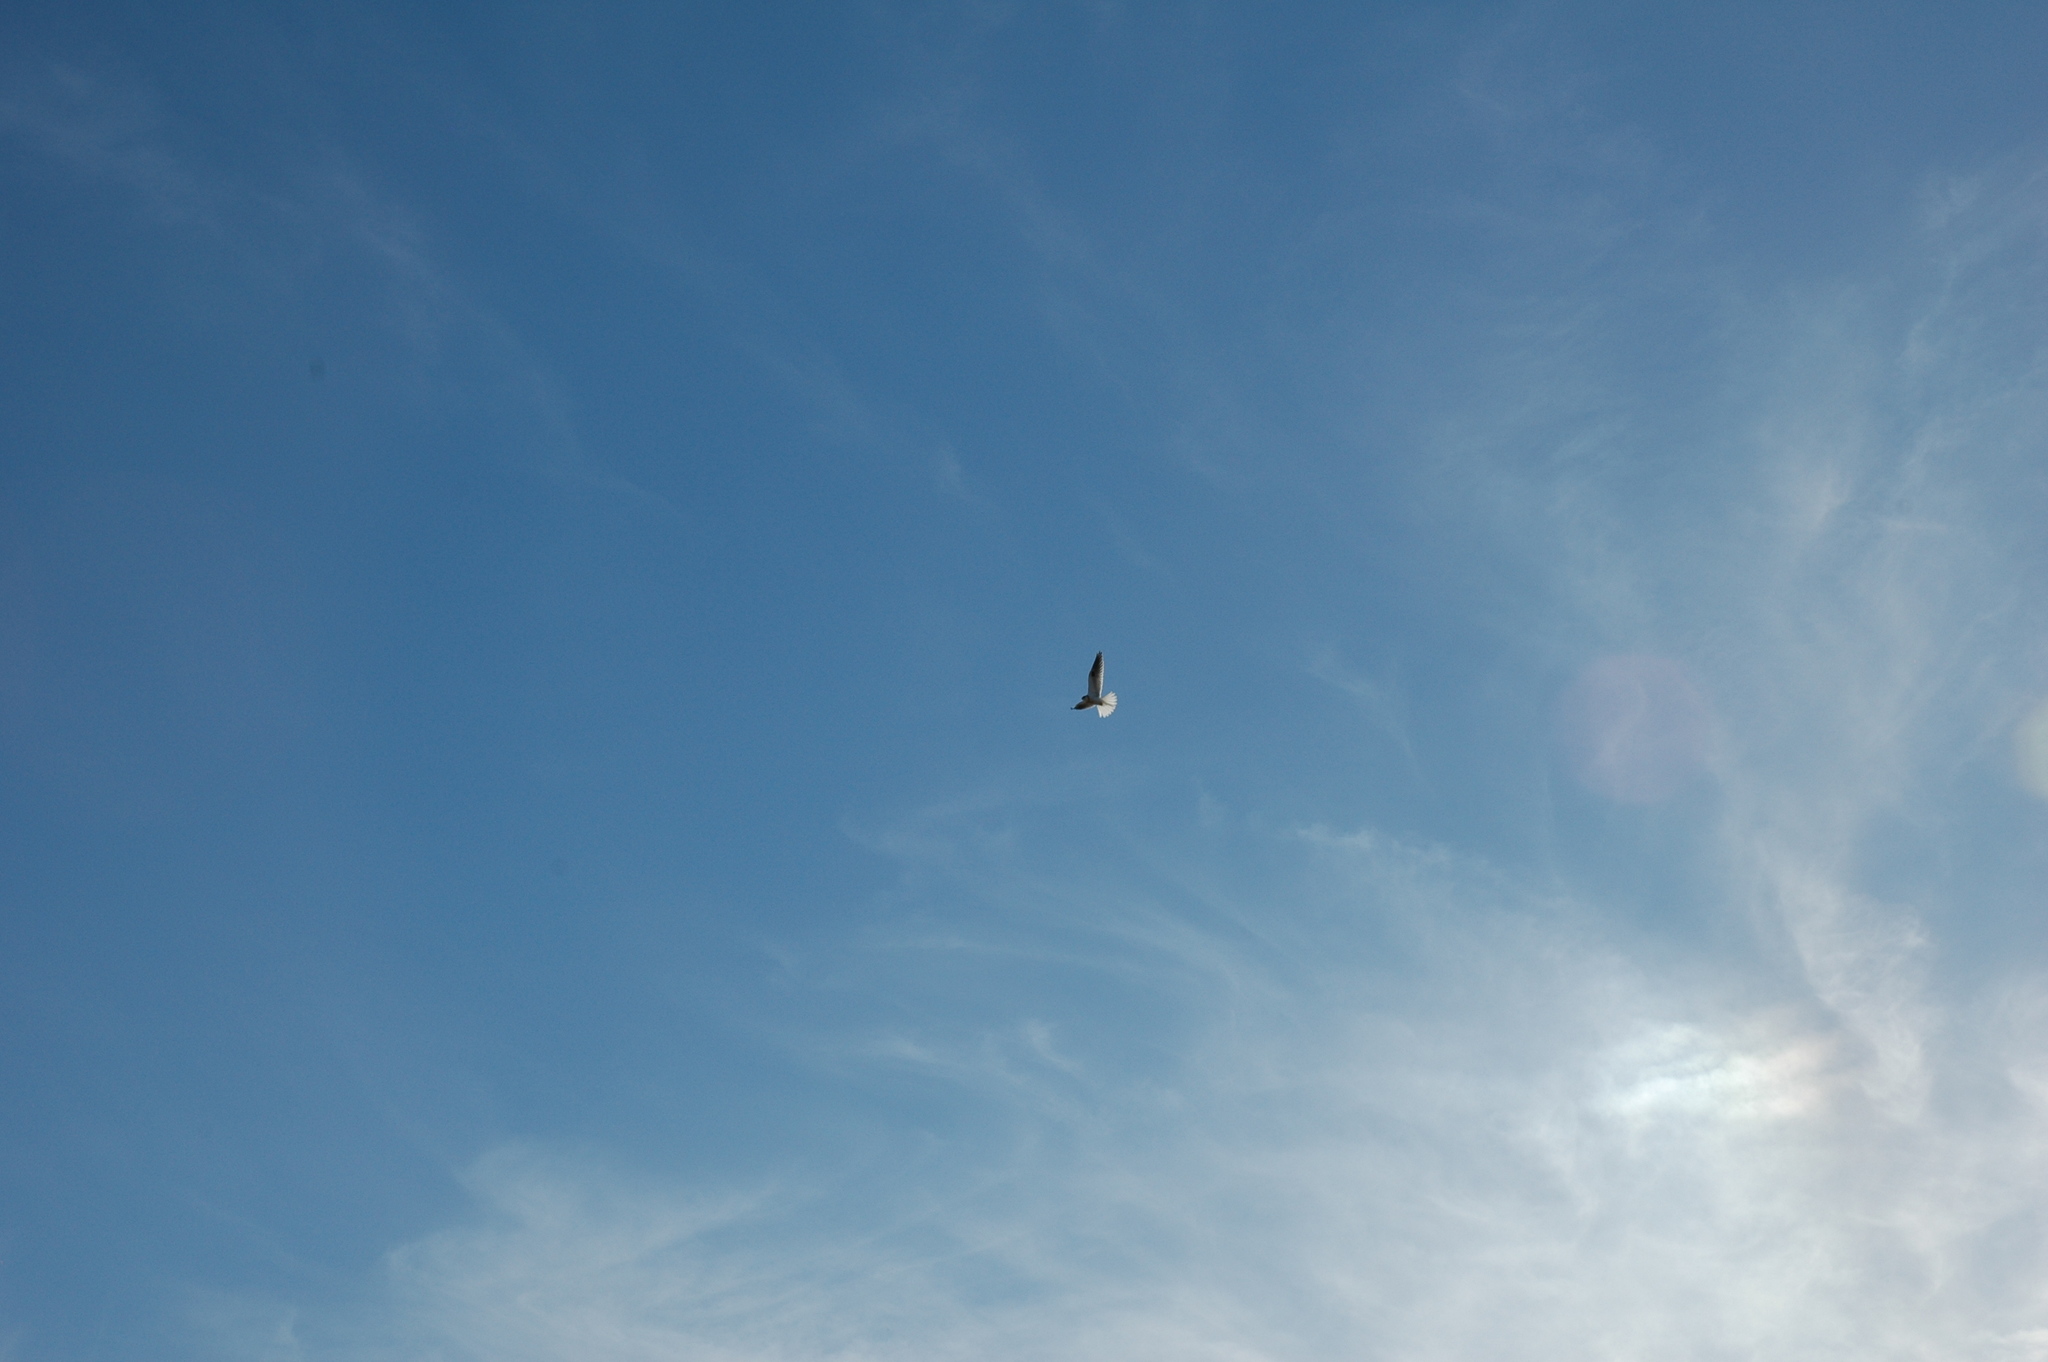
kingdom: Animalia
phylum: Chordata
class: Aves
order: Accipitriformes
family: Accipitridae
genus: Elanus
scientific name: Elanus leucurus
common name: White-tailed kite
